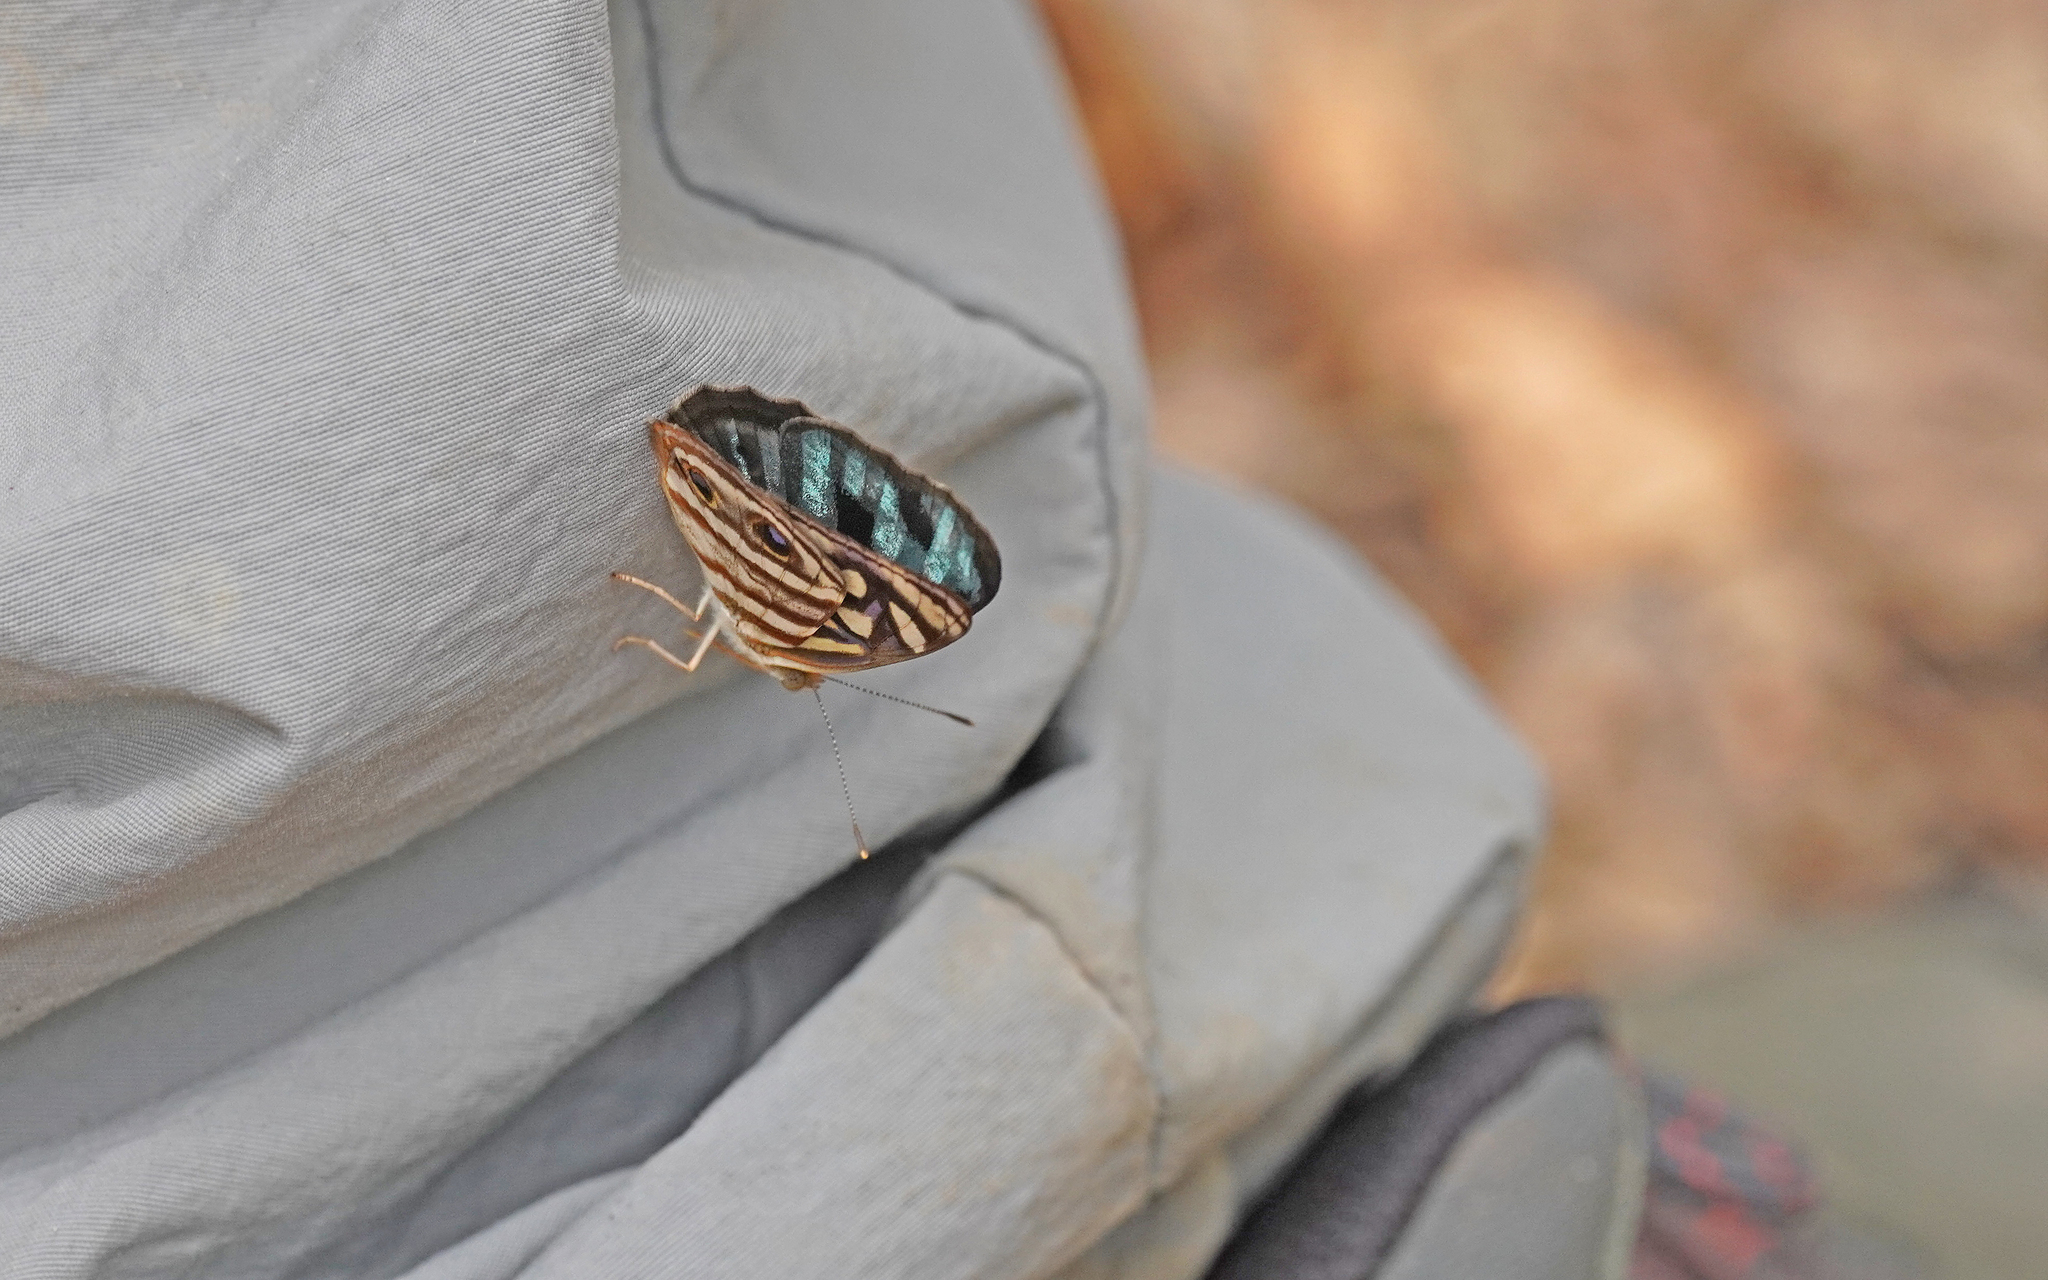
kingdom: Animalia
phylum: Arthropoda
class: Insecta
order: Lepidoptera
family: Nymphalidae
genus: Dynamine
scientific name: Dynamine mylitta
